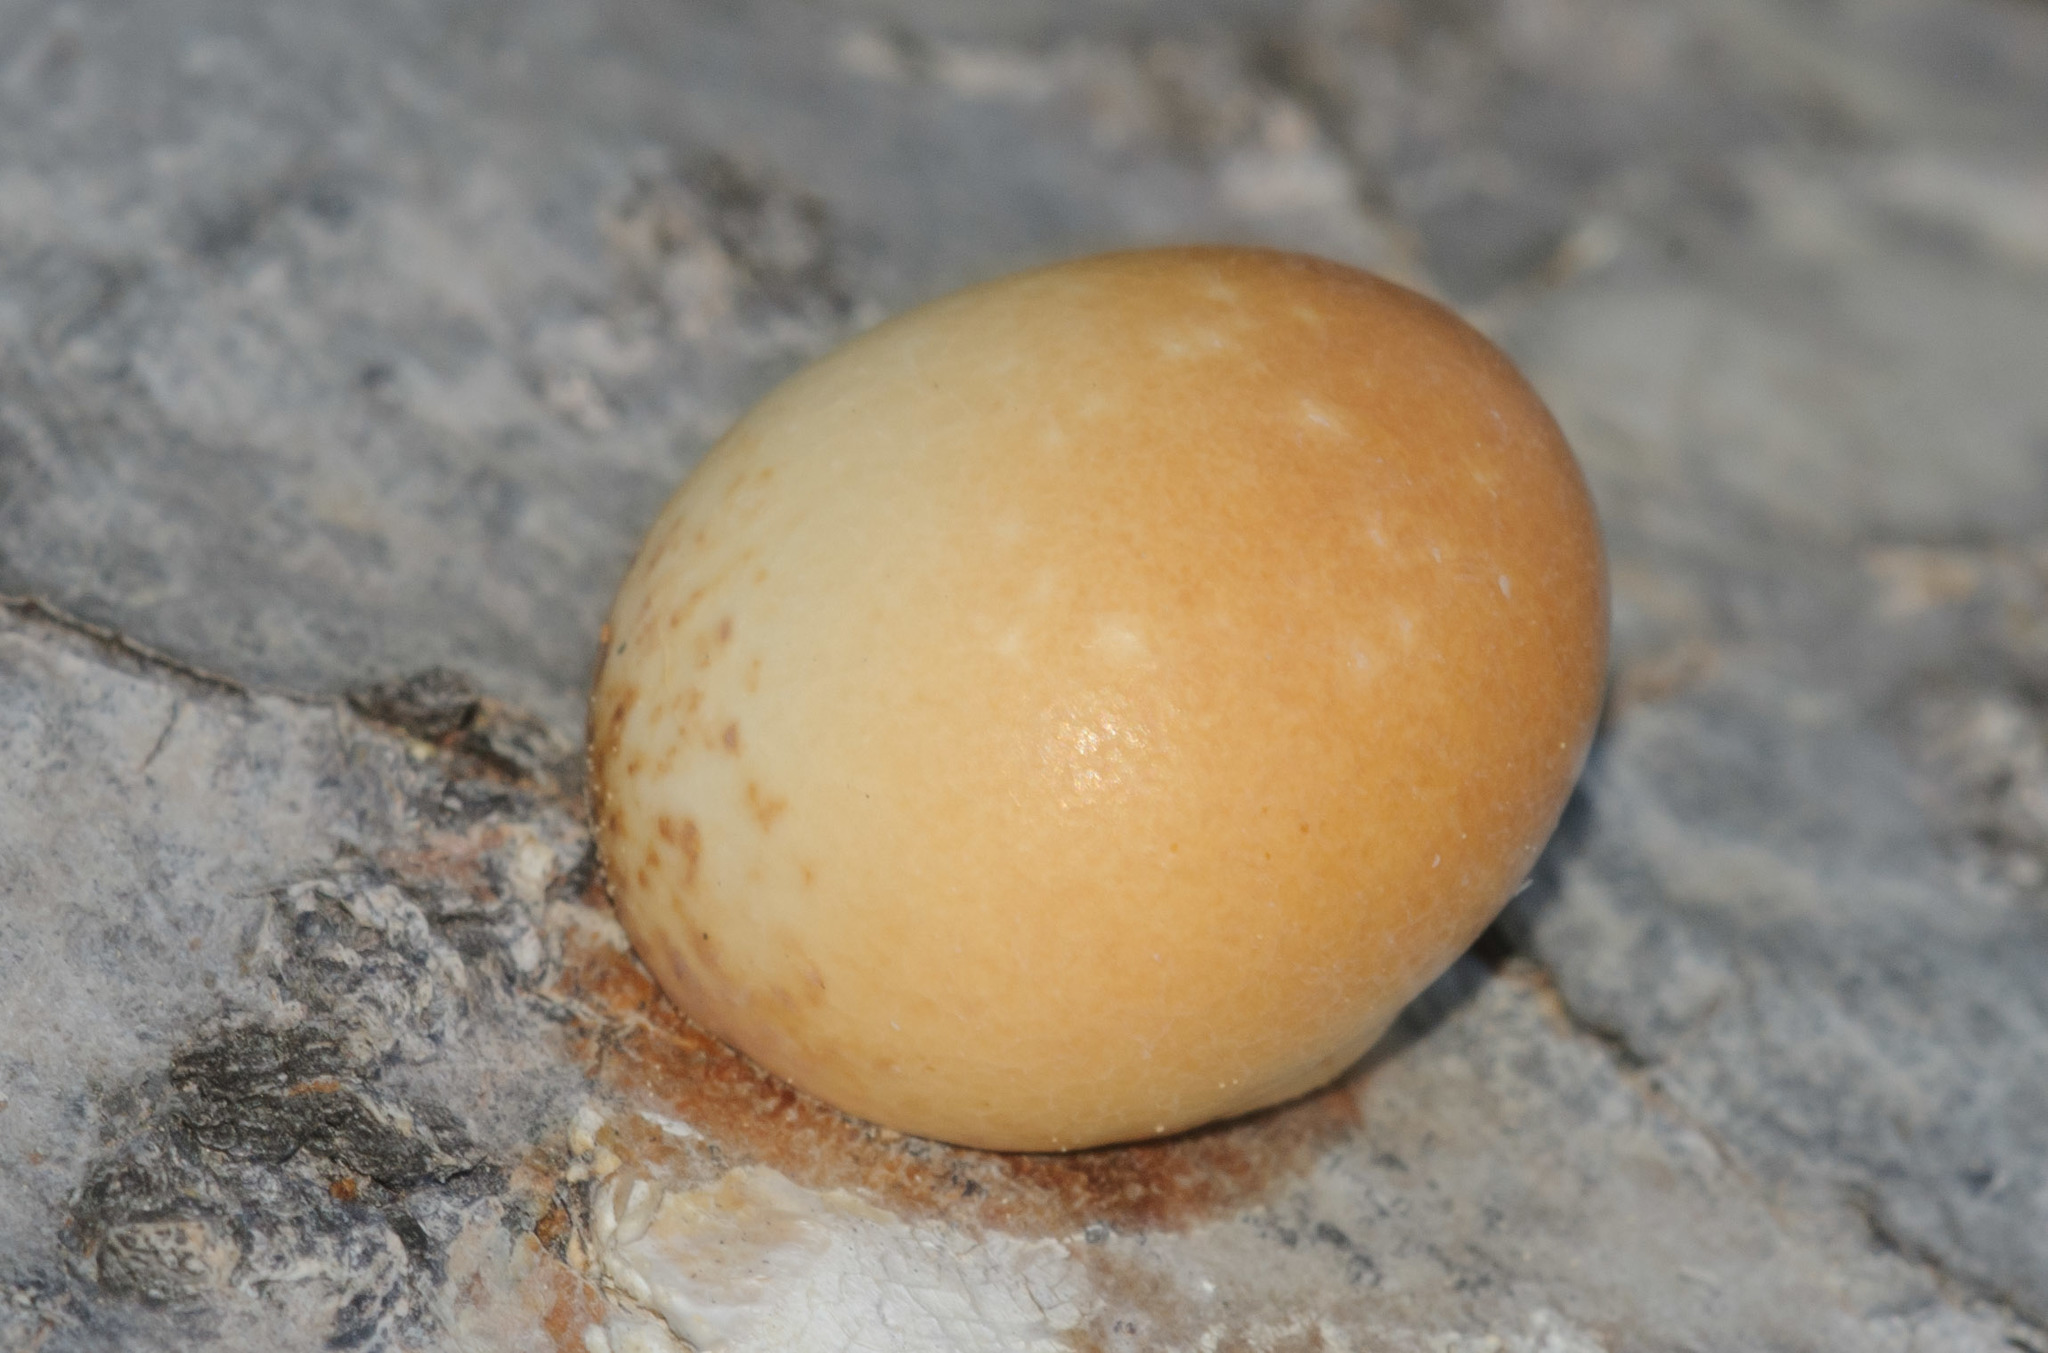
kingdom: Fungi
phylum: Basidiomycota
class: Agaricomycetes
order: Polyporales
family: Polyporaceae
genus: Cryptoporus
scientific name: Cryptoporus volvatus
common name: Veiled polypore
